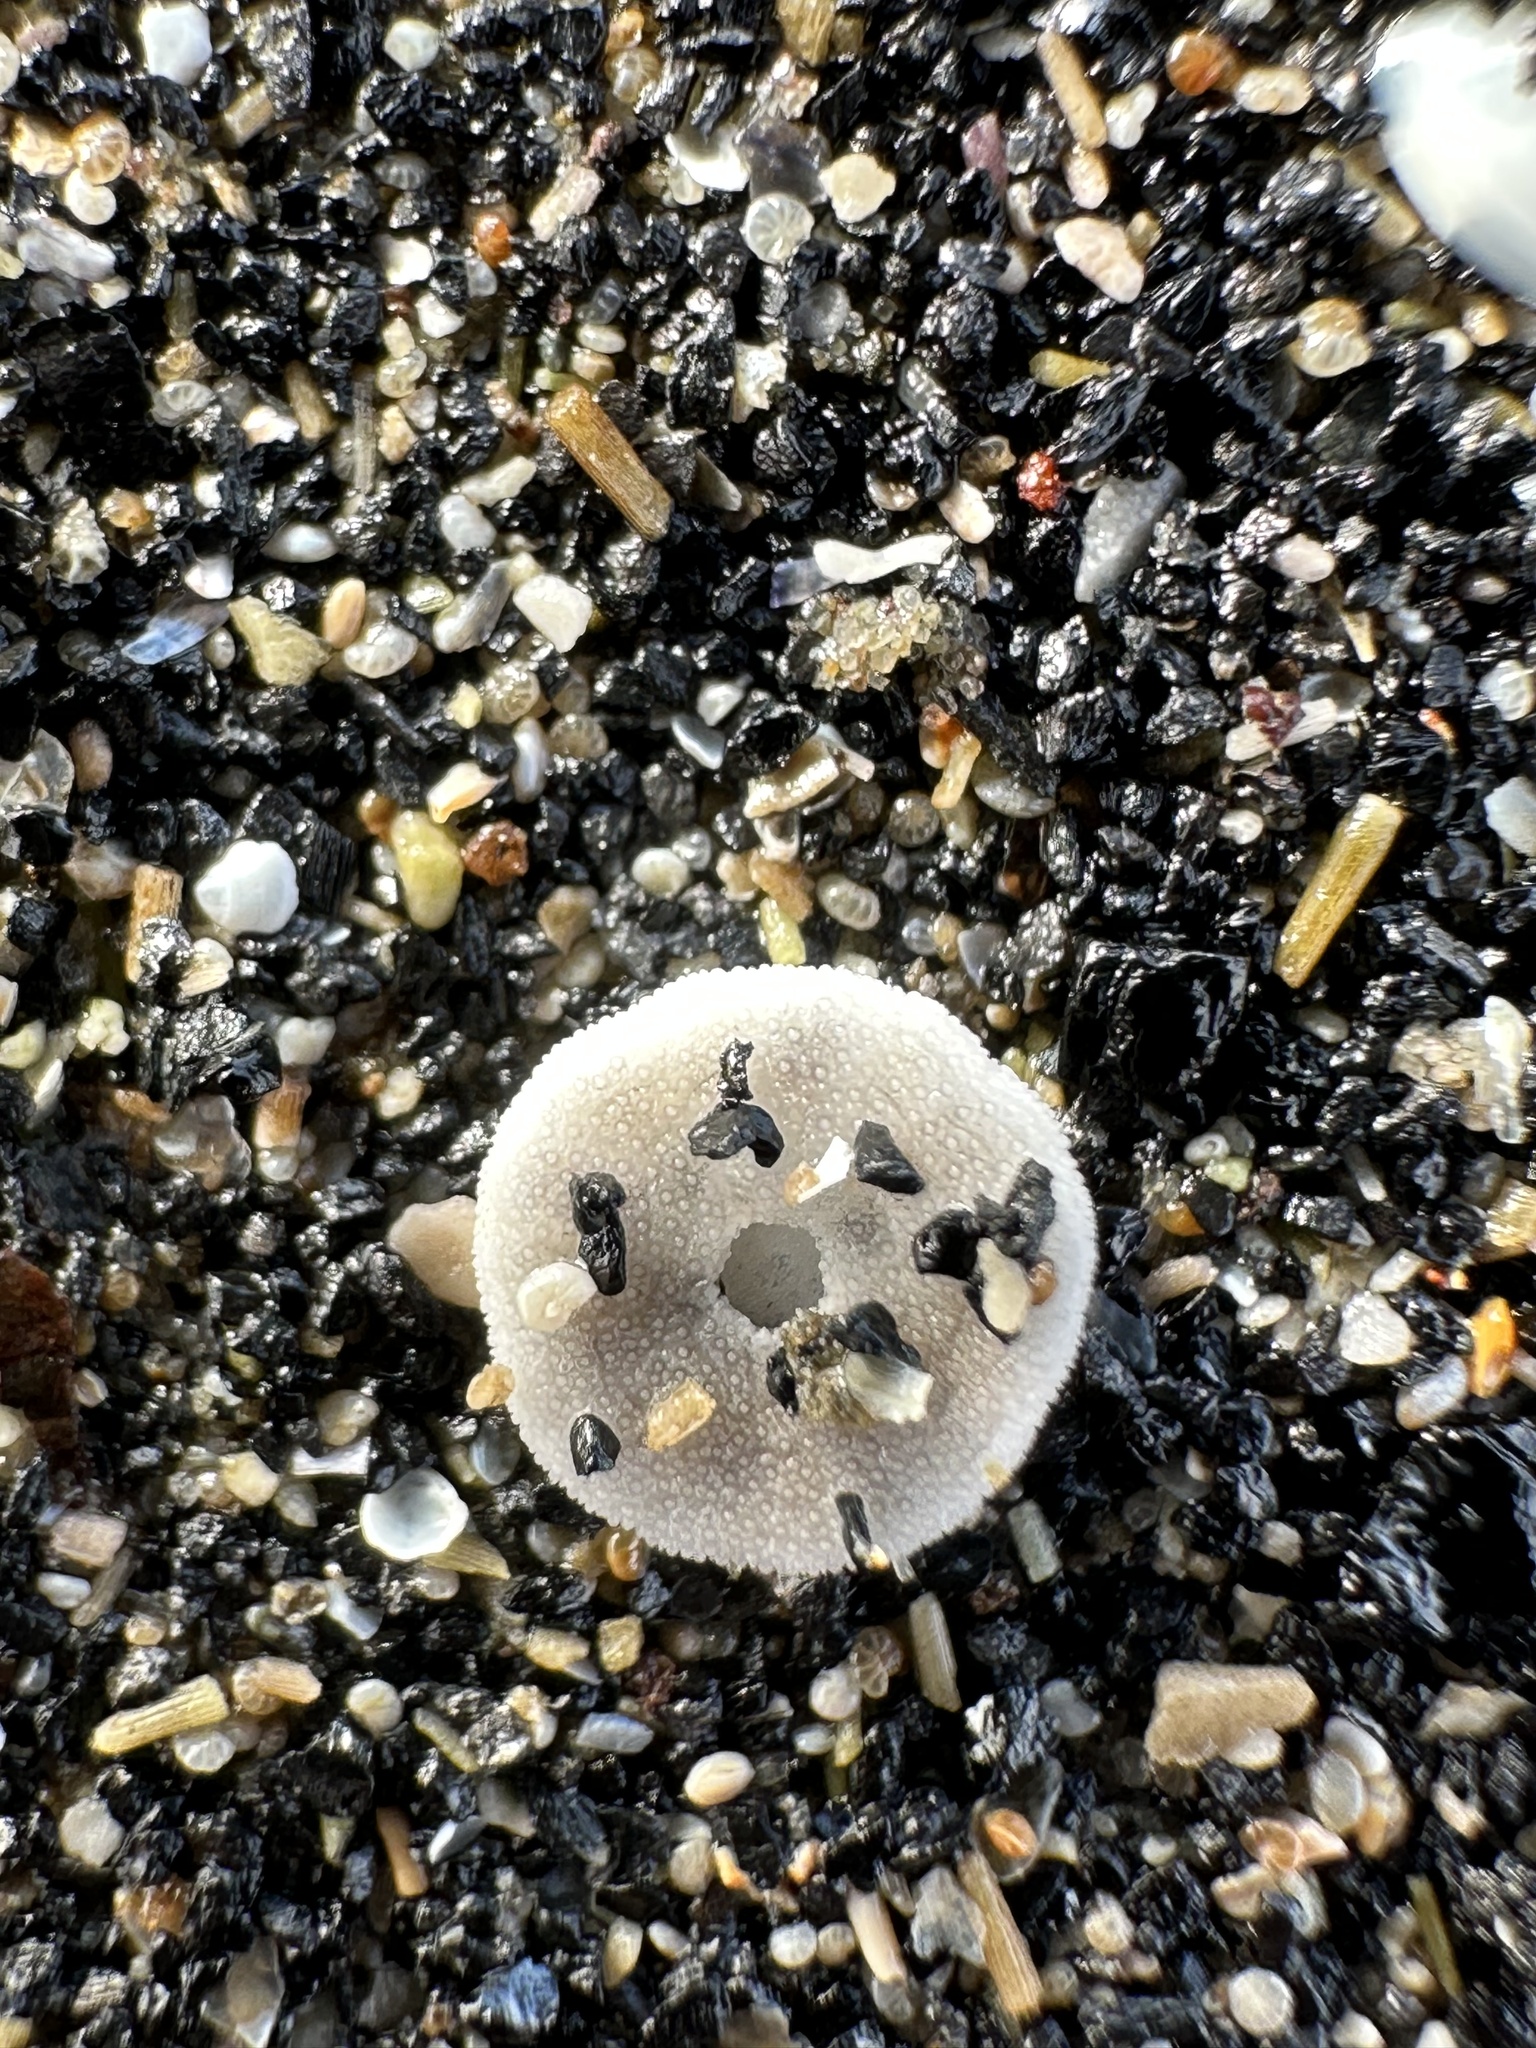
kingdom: Animalia
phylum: Echinodermata
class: Echinoidea
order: Echinolampadacea
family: Echinarachniidae
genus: Echinarachnius
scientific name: Echinarachnius parma
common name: Common sand dollar
